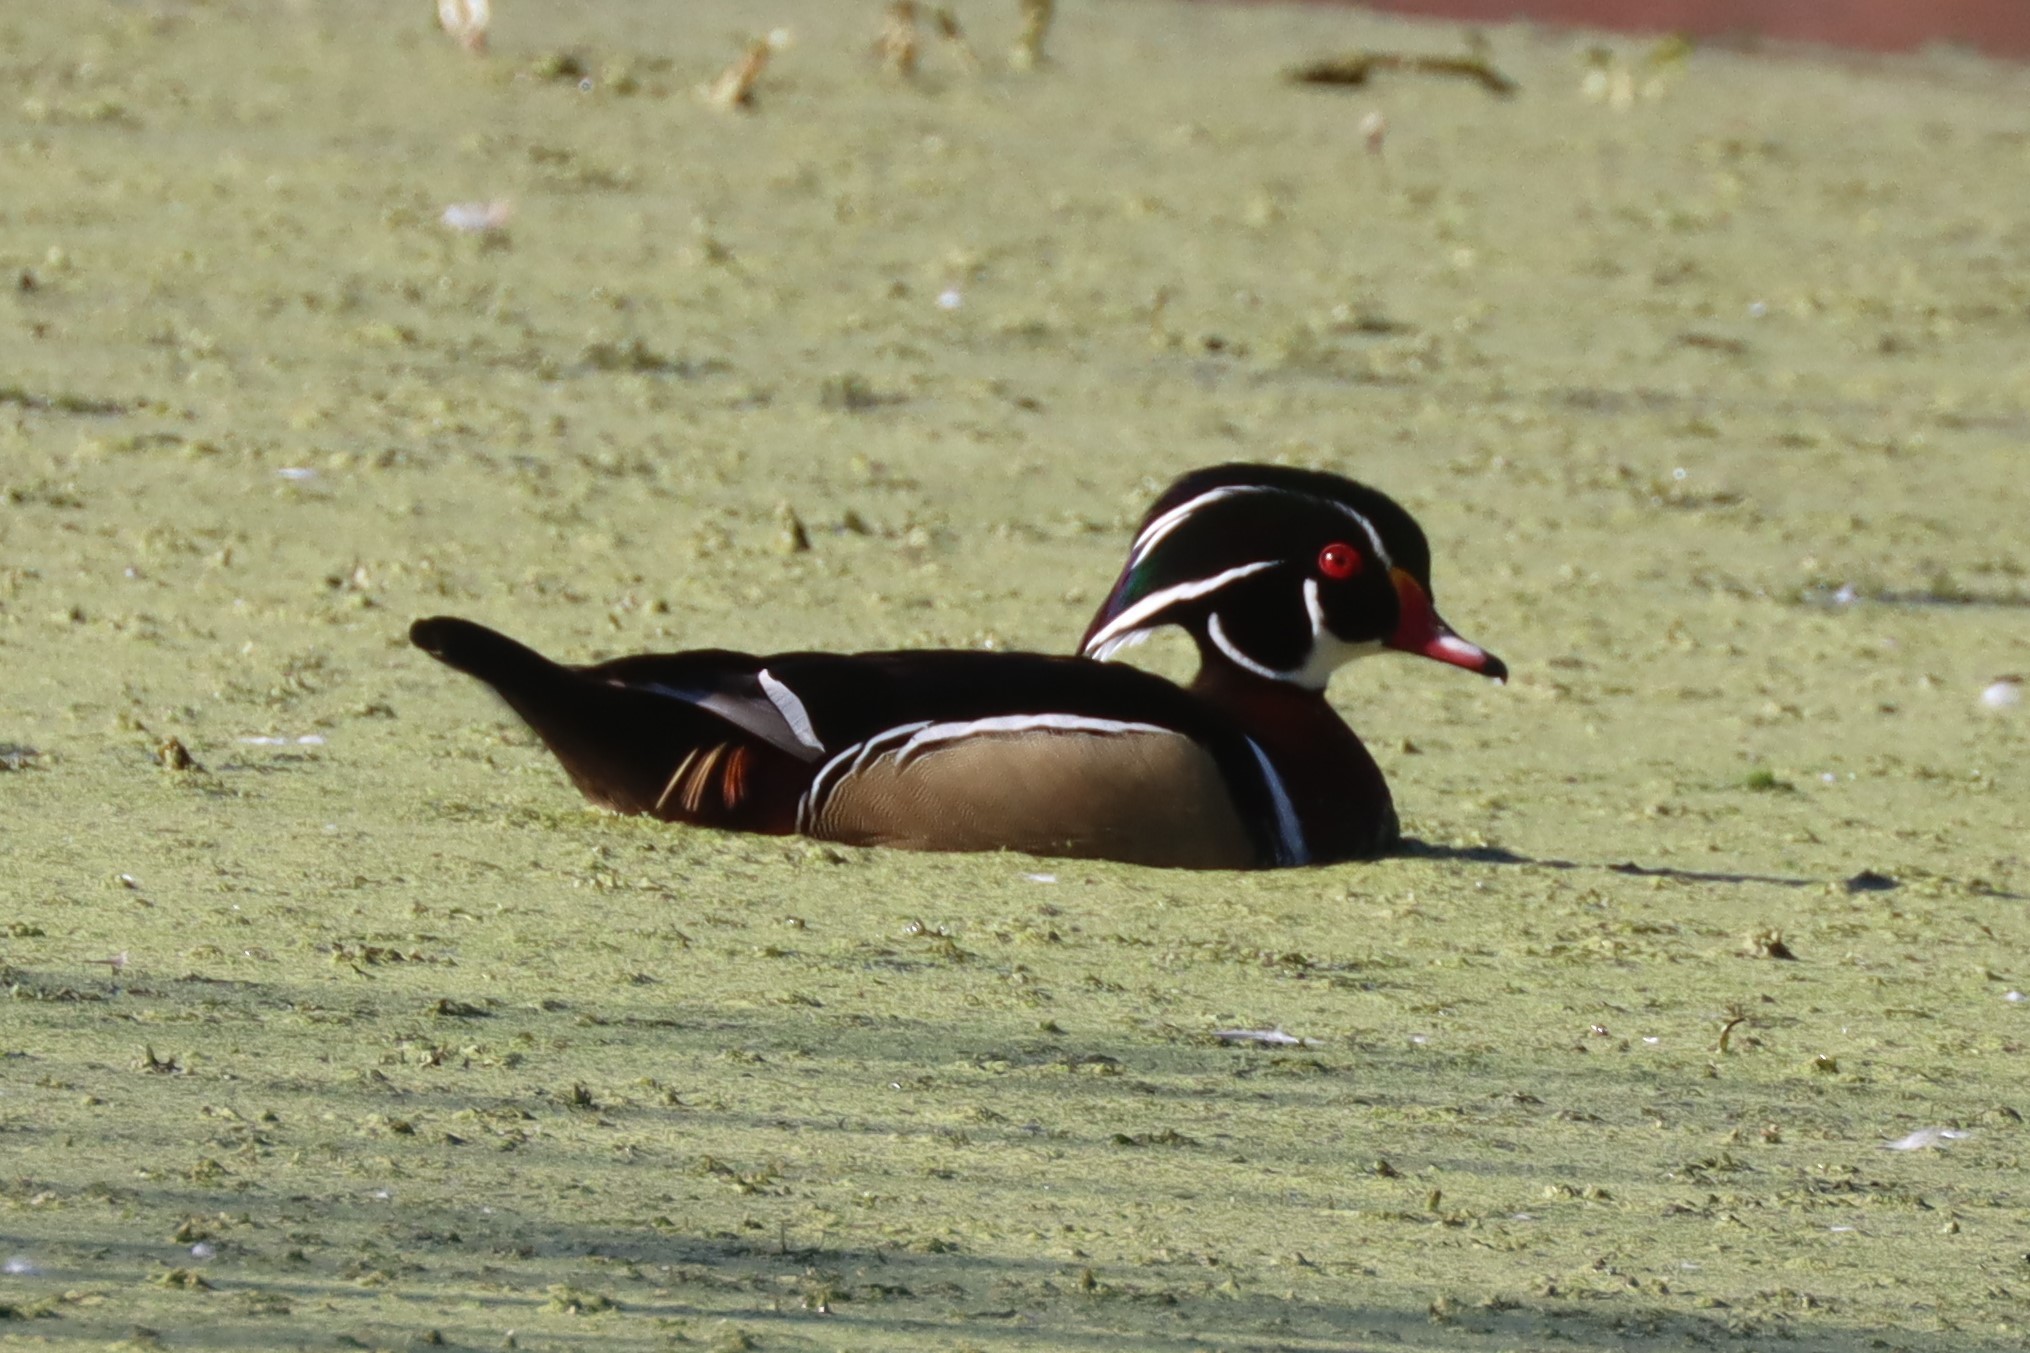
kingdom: Animalia
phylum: Chordata
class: Aves
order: Anseriformes
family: Anatidae
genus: Aix
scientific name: Aix sponsa
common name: Wood duck
